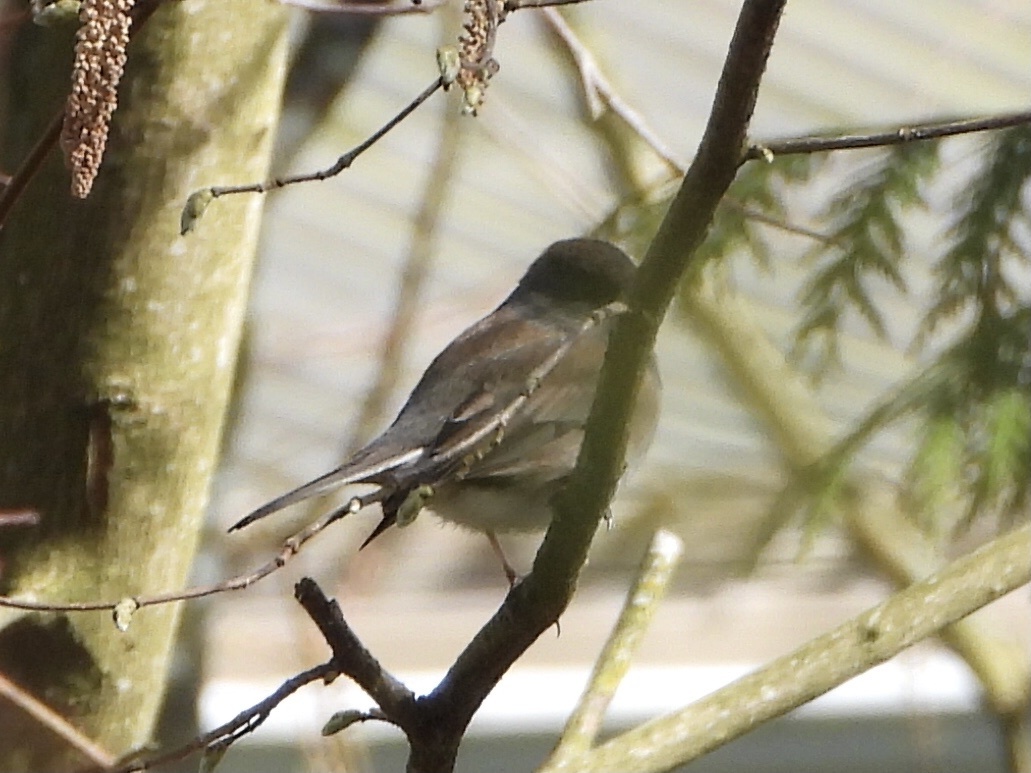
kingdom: Animalia
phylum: Chordata
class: Aves
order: Passeriformes
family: Passerellidae
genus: Junco
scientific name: Junco hyemalis
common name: Dark-eyed junco
